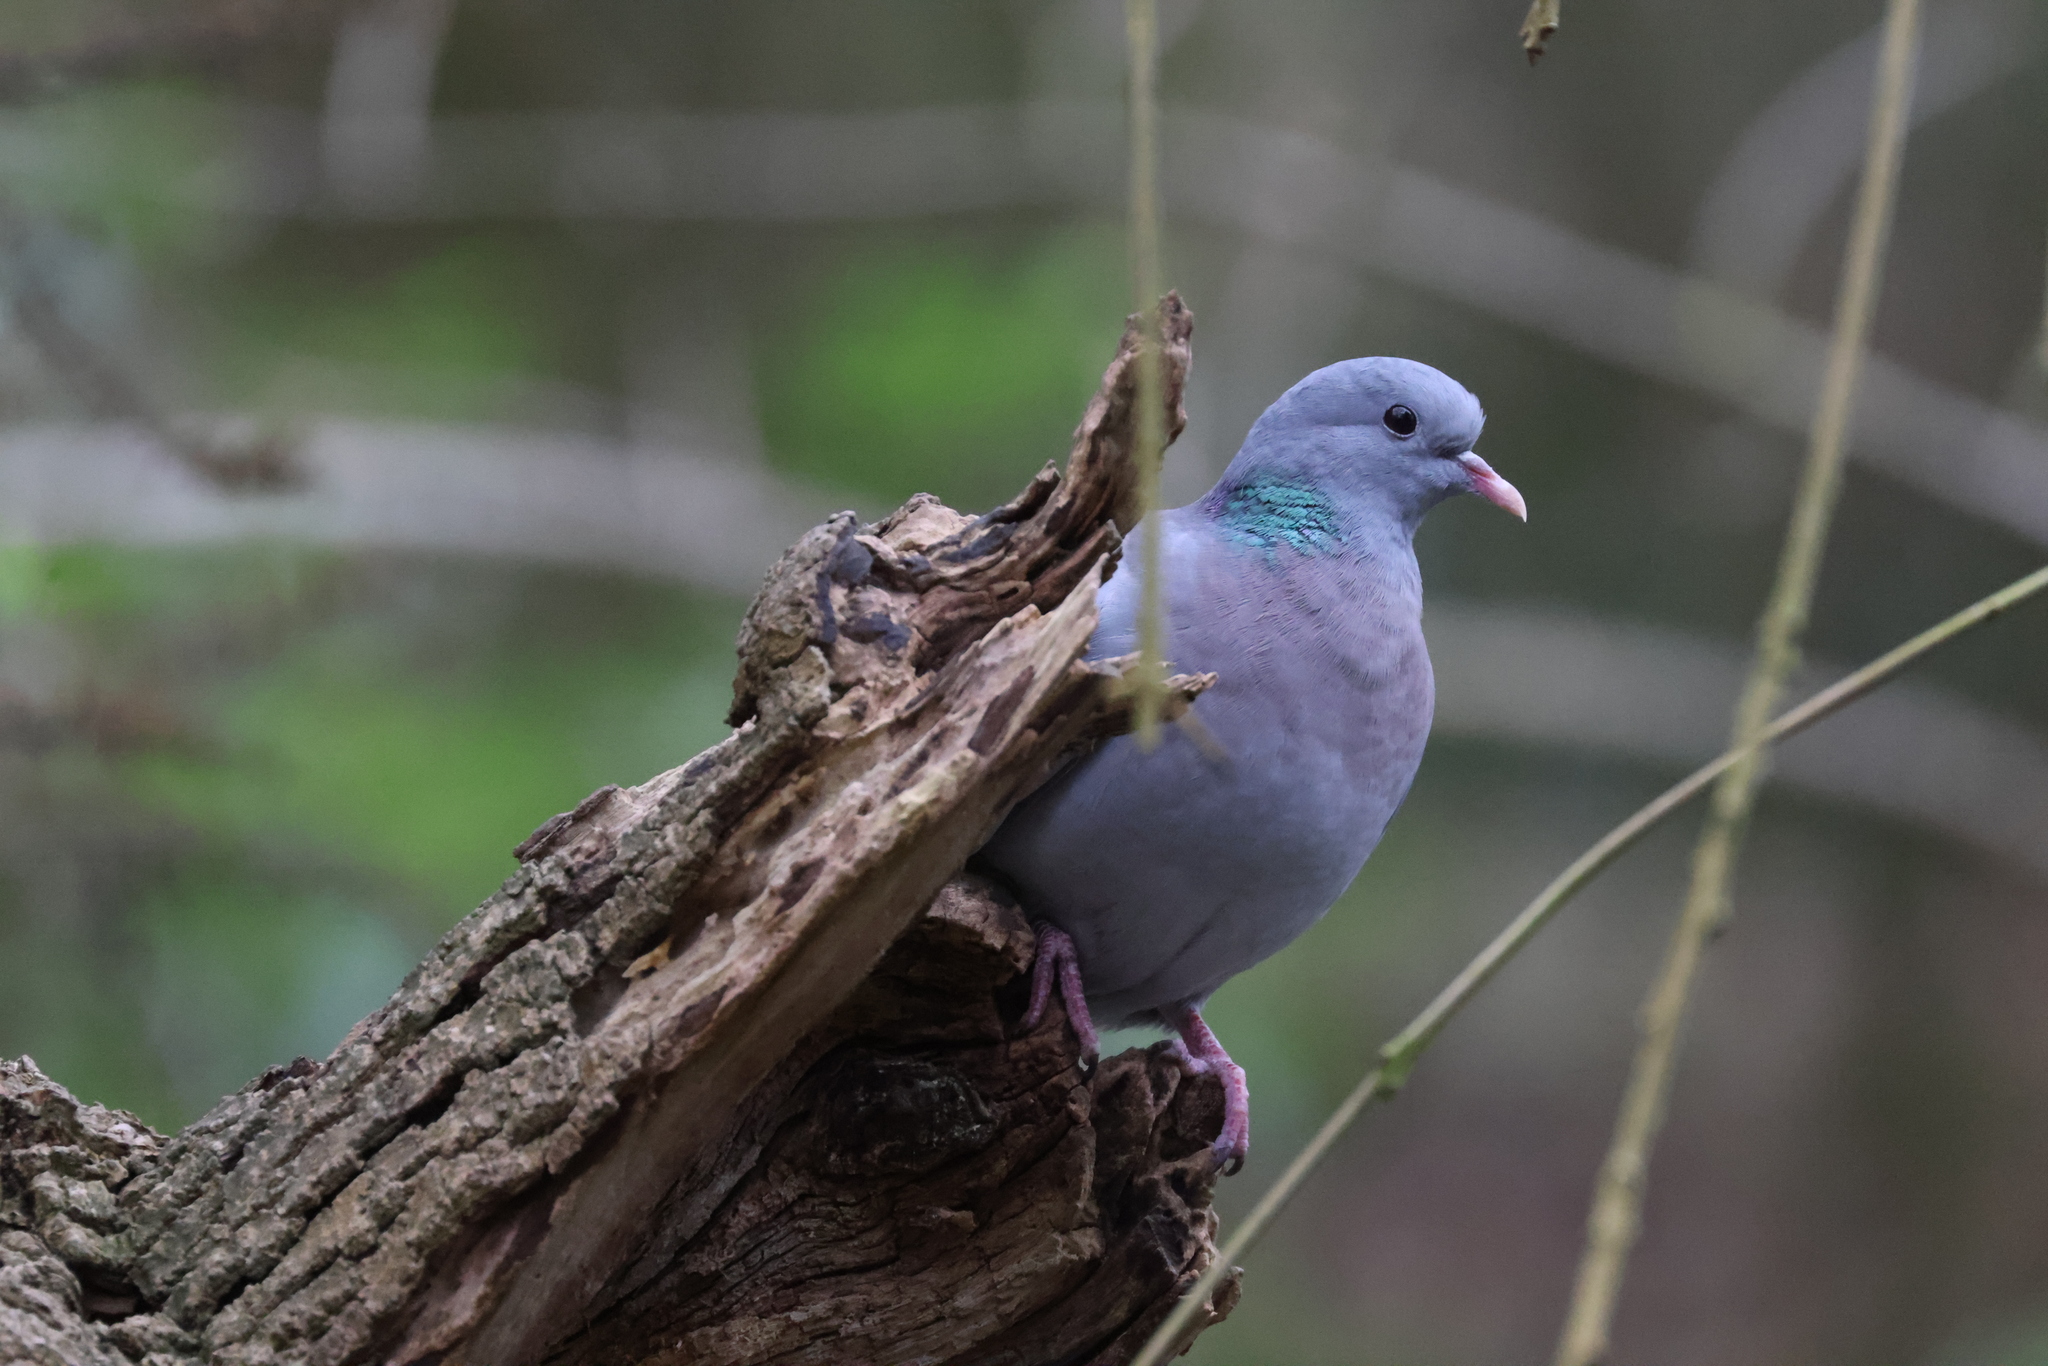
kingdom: Animalia
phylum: Chordata
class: Aves
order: Columbiformes
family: Columbidae
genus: Columba
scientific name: Columba oenas
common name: Stock dove
